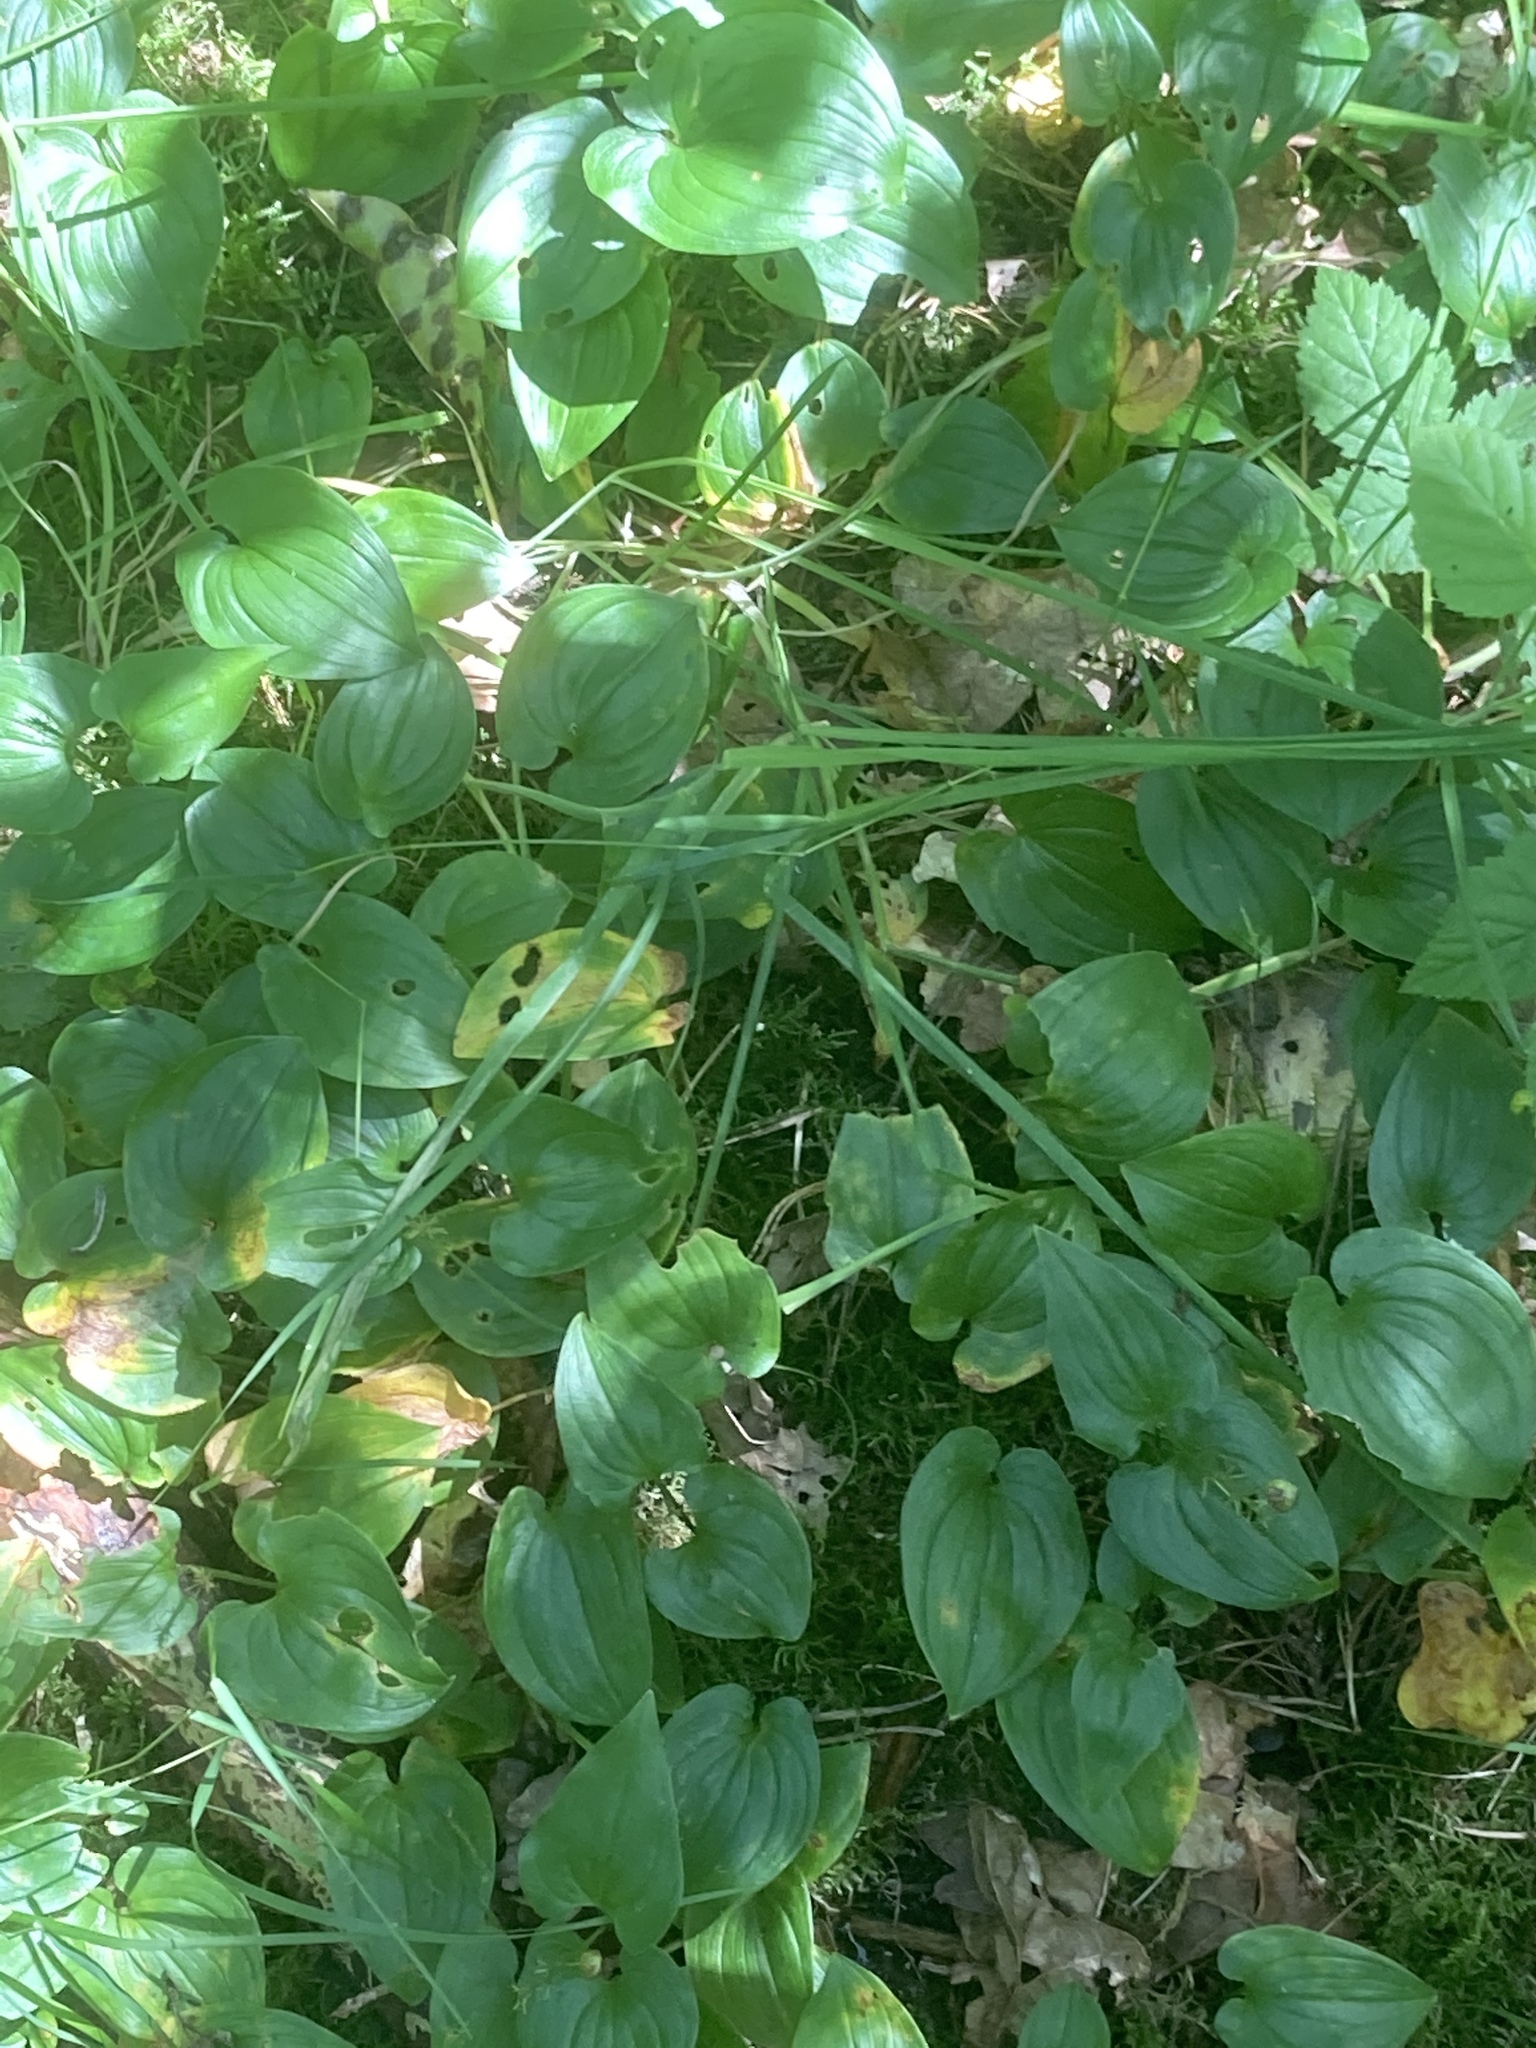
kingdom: Plantae
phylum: Tracheophyta
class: Liliopsida
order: Asparagales
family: Asparagaceae
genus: Maianthemum
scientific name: Maianthemum bifolium
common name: May lily
